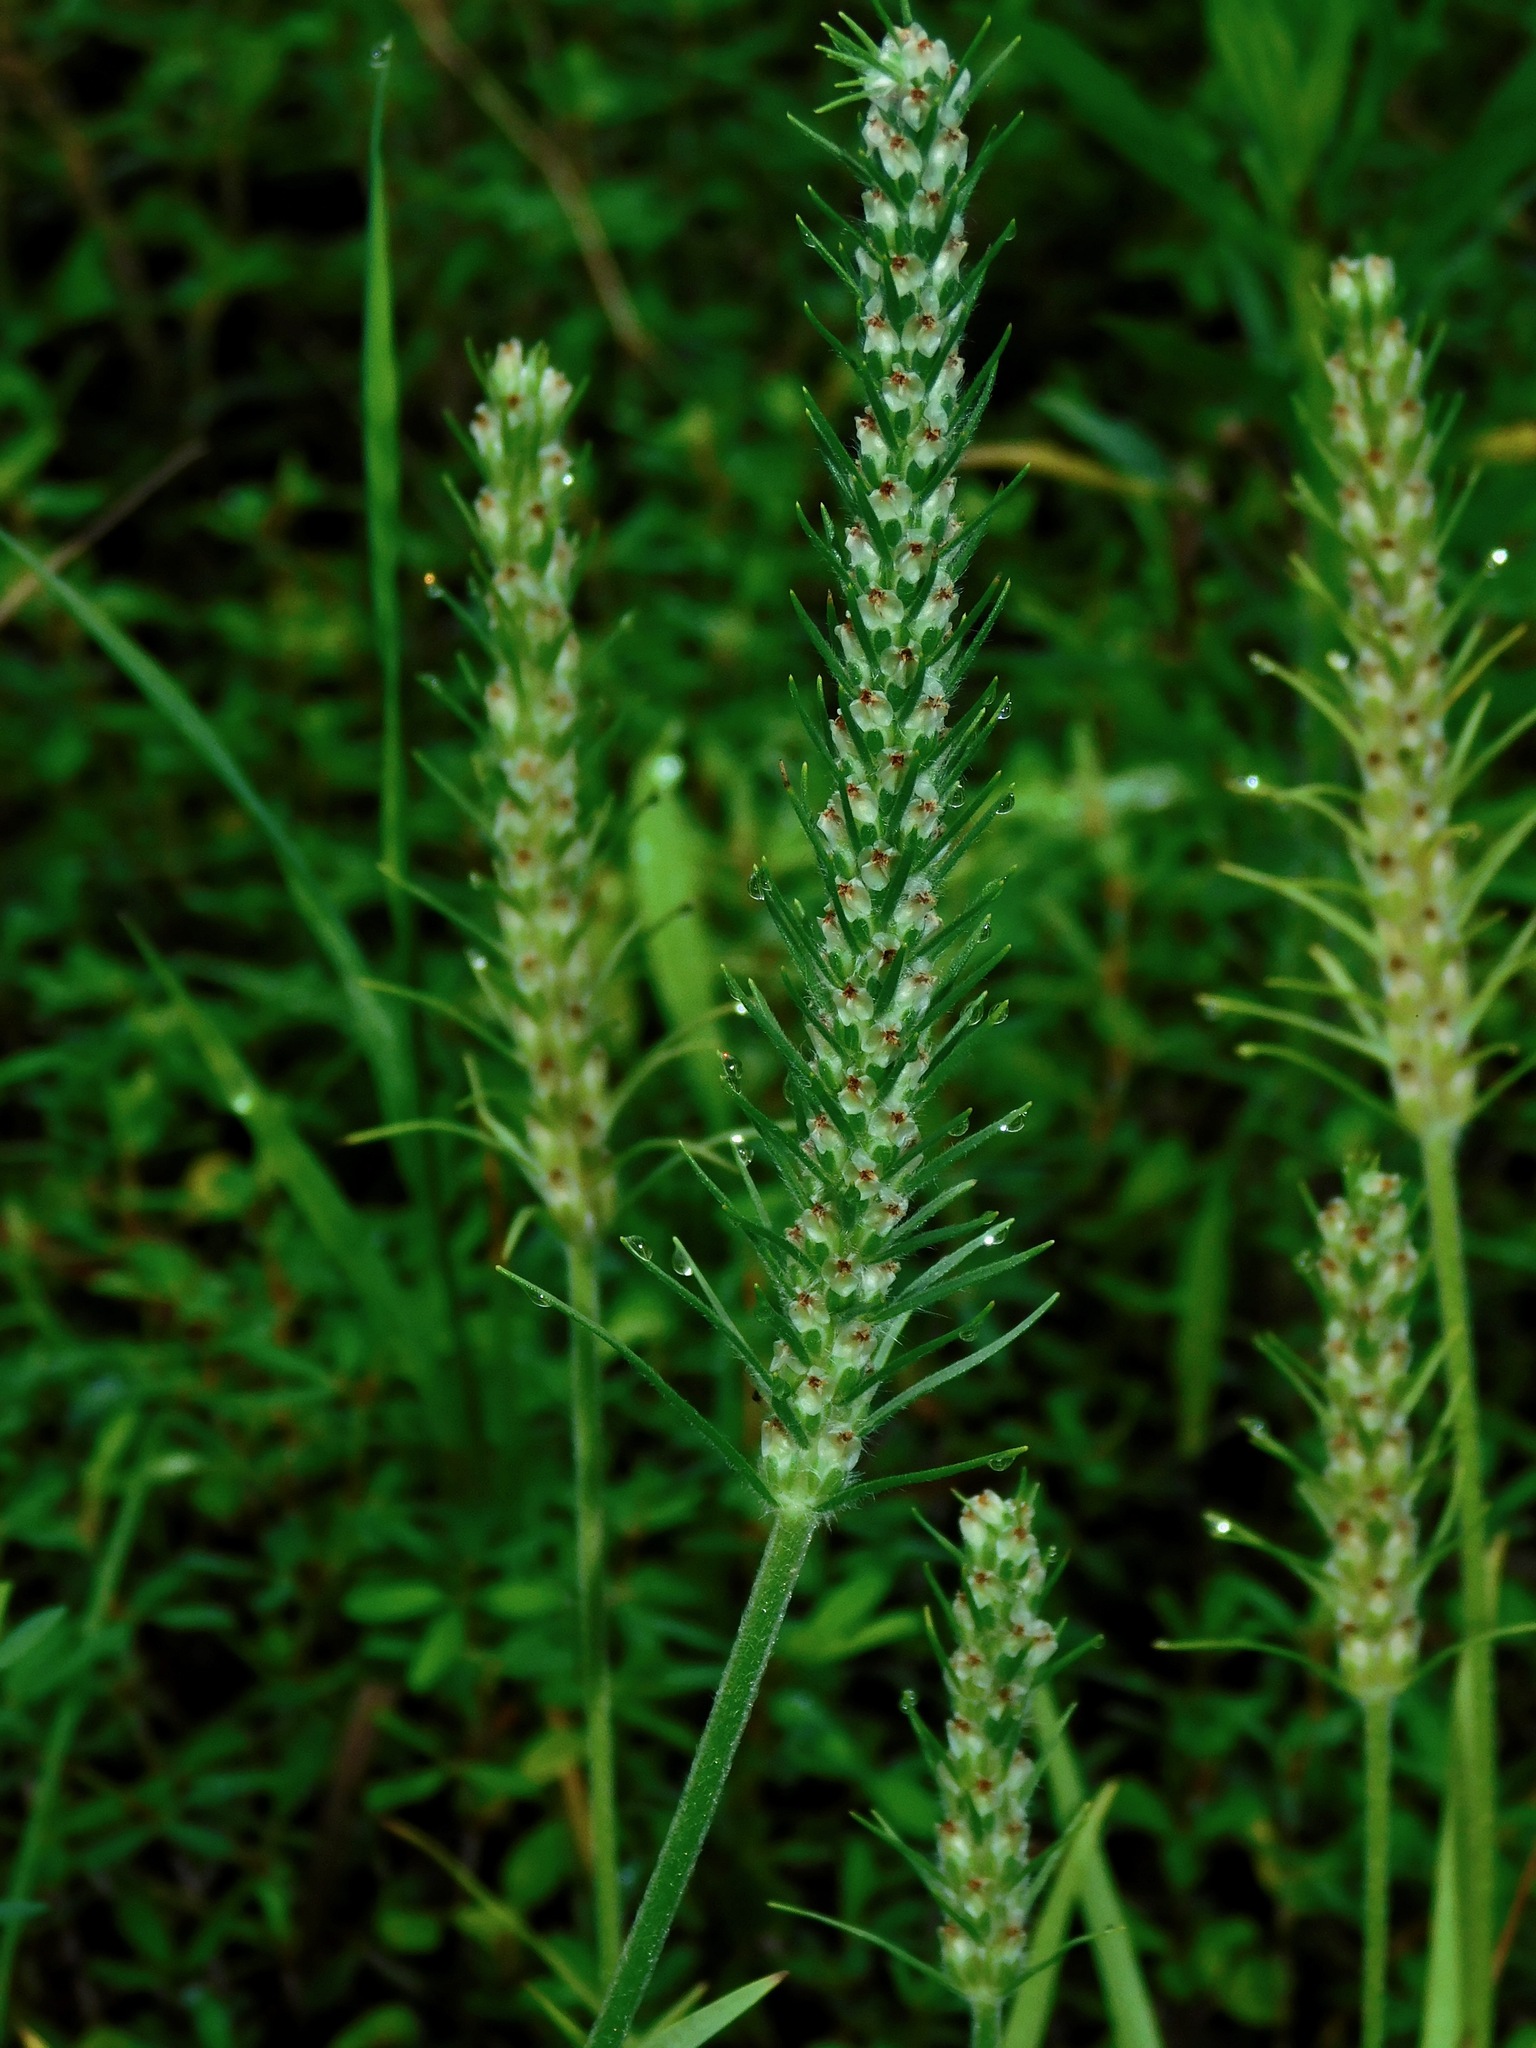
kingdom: Plantae
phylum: Tracheophyta
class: Magnoliopsida
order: Lamiales
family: Plantaginaceae
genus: Plantago
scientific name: Plantago aristata
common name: Bracted plantain
